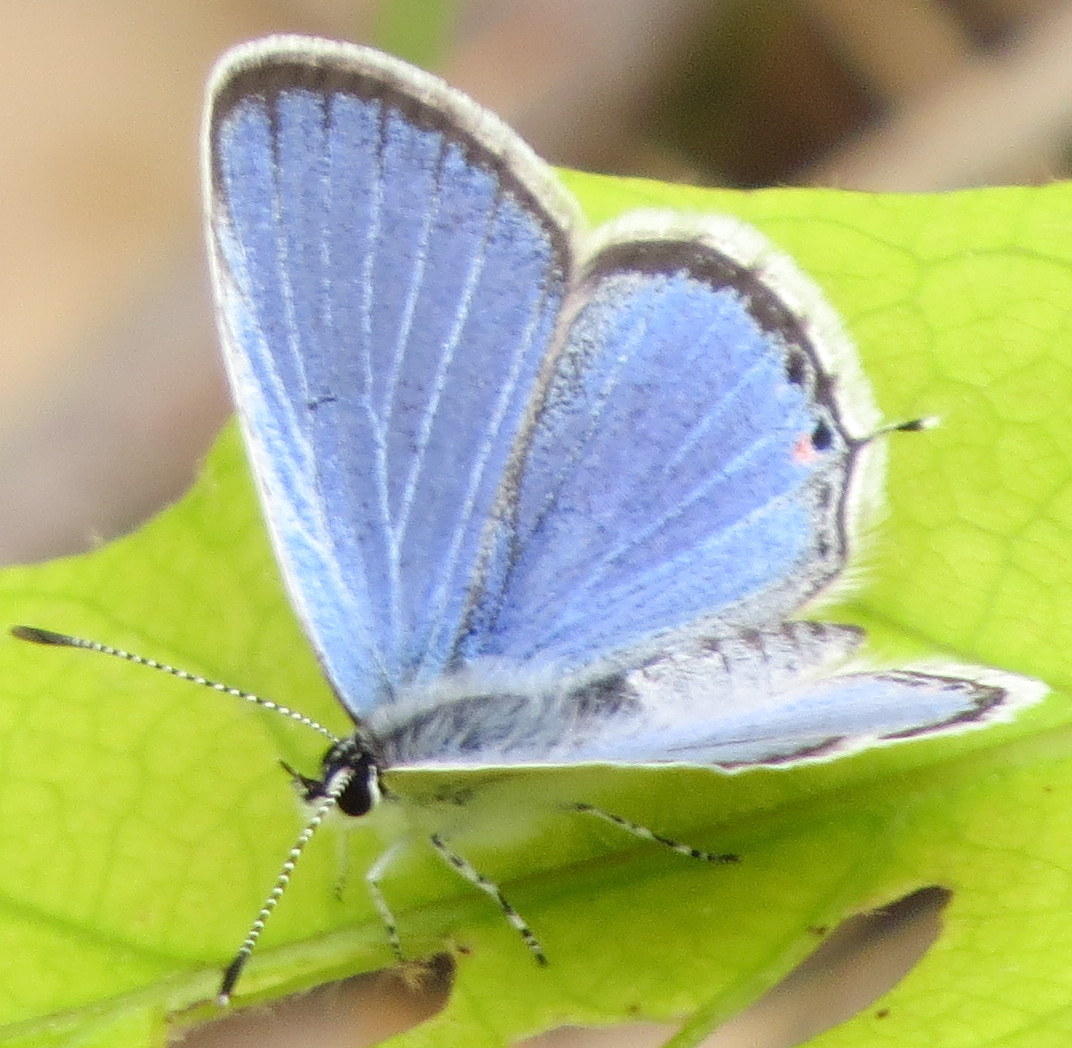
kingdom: Animalia
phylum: Arthropoda
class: Insecta
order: Lepidoptera
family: Lycaenidae
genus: Elkalyce
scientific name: Elkalyce comyntas
